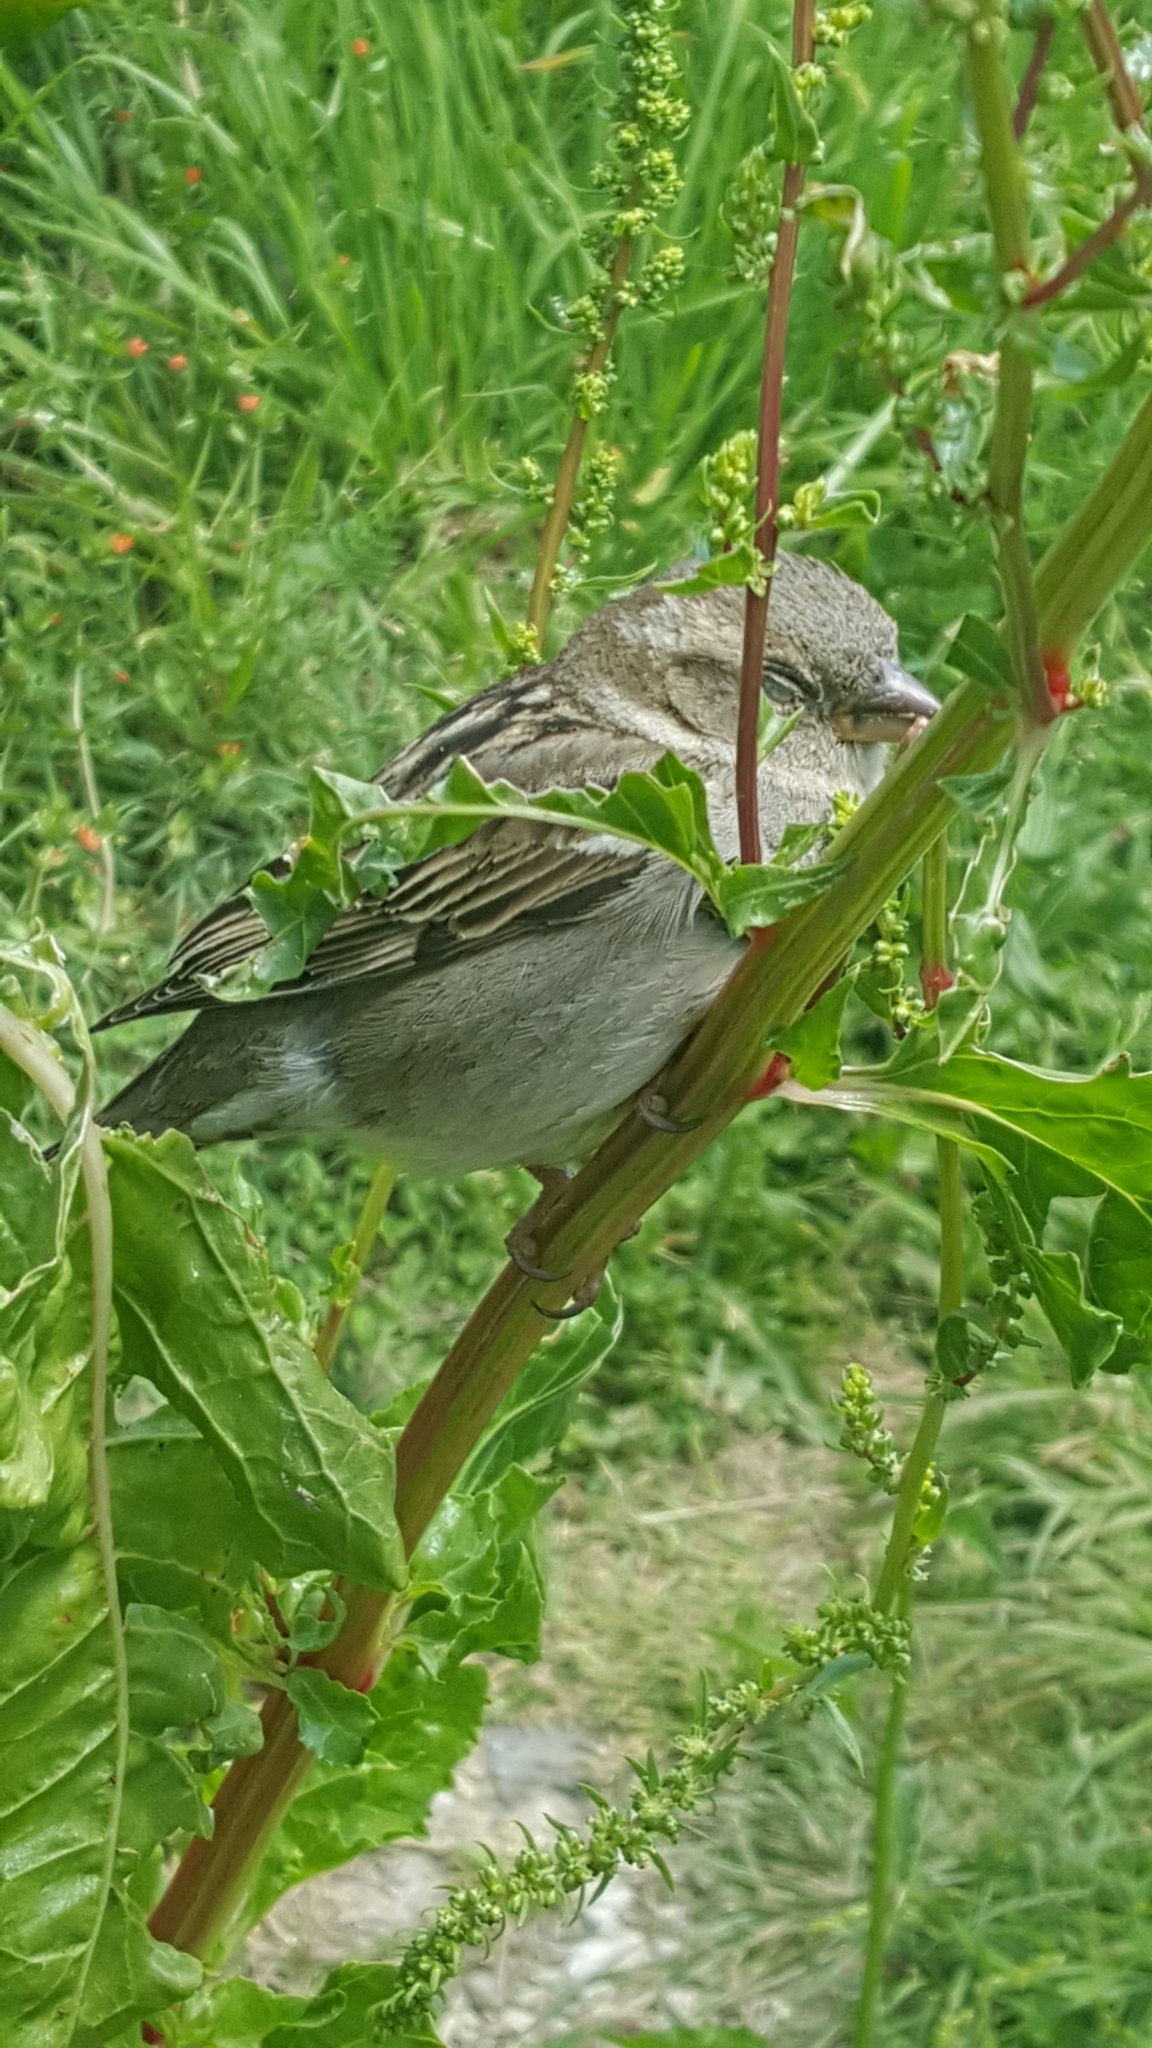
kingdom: Animalia
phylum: Chordata
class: Aves
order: Passeriformes
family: Passeridae
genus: Passer
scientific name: Passer domesticus
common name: House sparrow
